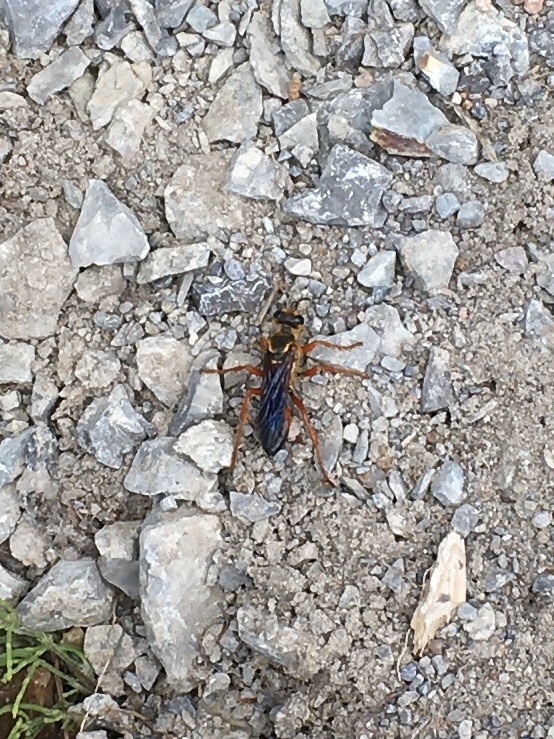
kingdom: Animalia
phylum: Arthropoda
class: Insecta
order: Hymenoptera
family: Sphecidae
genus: Sphex
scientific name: Sphex ichneumoneus
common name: Great golden digger wasp
